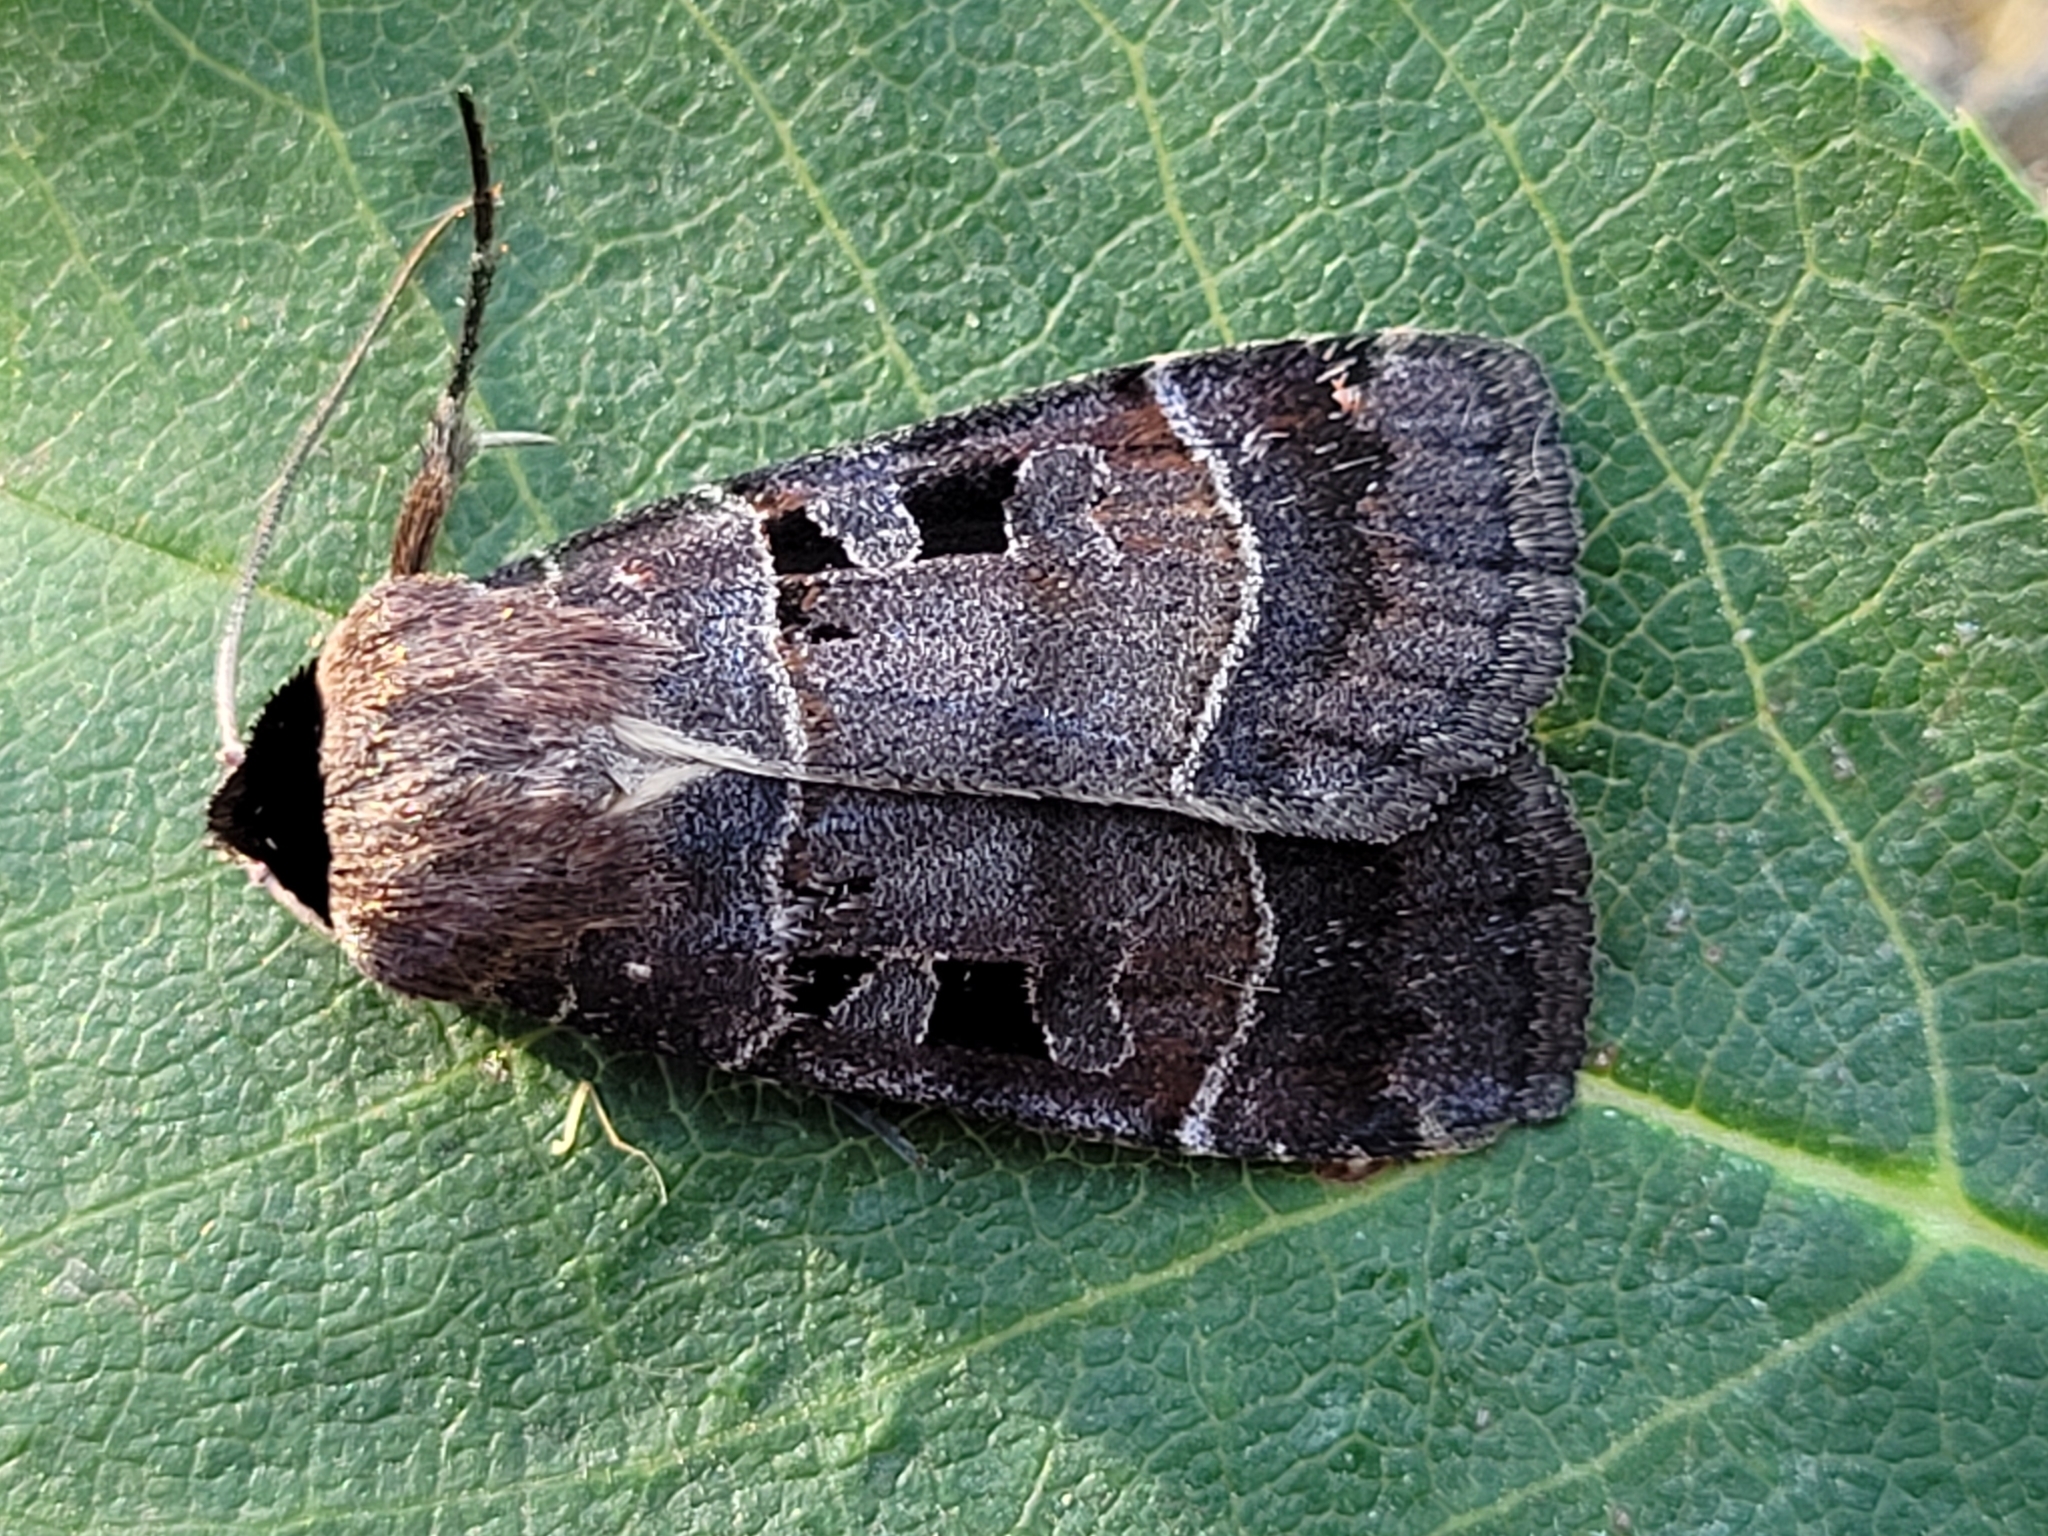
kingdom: Animalia
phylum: Arthropoda
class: Insecta
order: Lepidoptera
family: Noctuidae
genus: Agnorisma
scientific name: Agnorisma bugrai
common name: Collared dart
